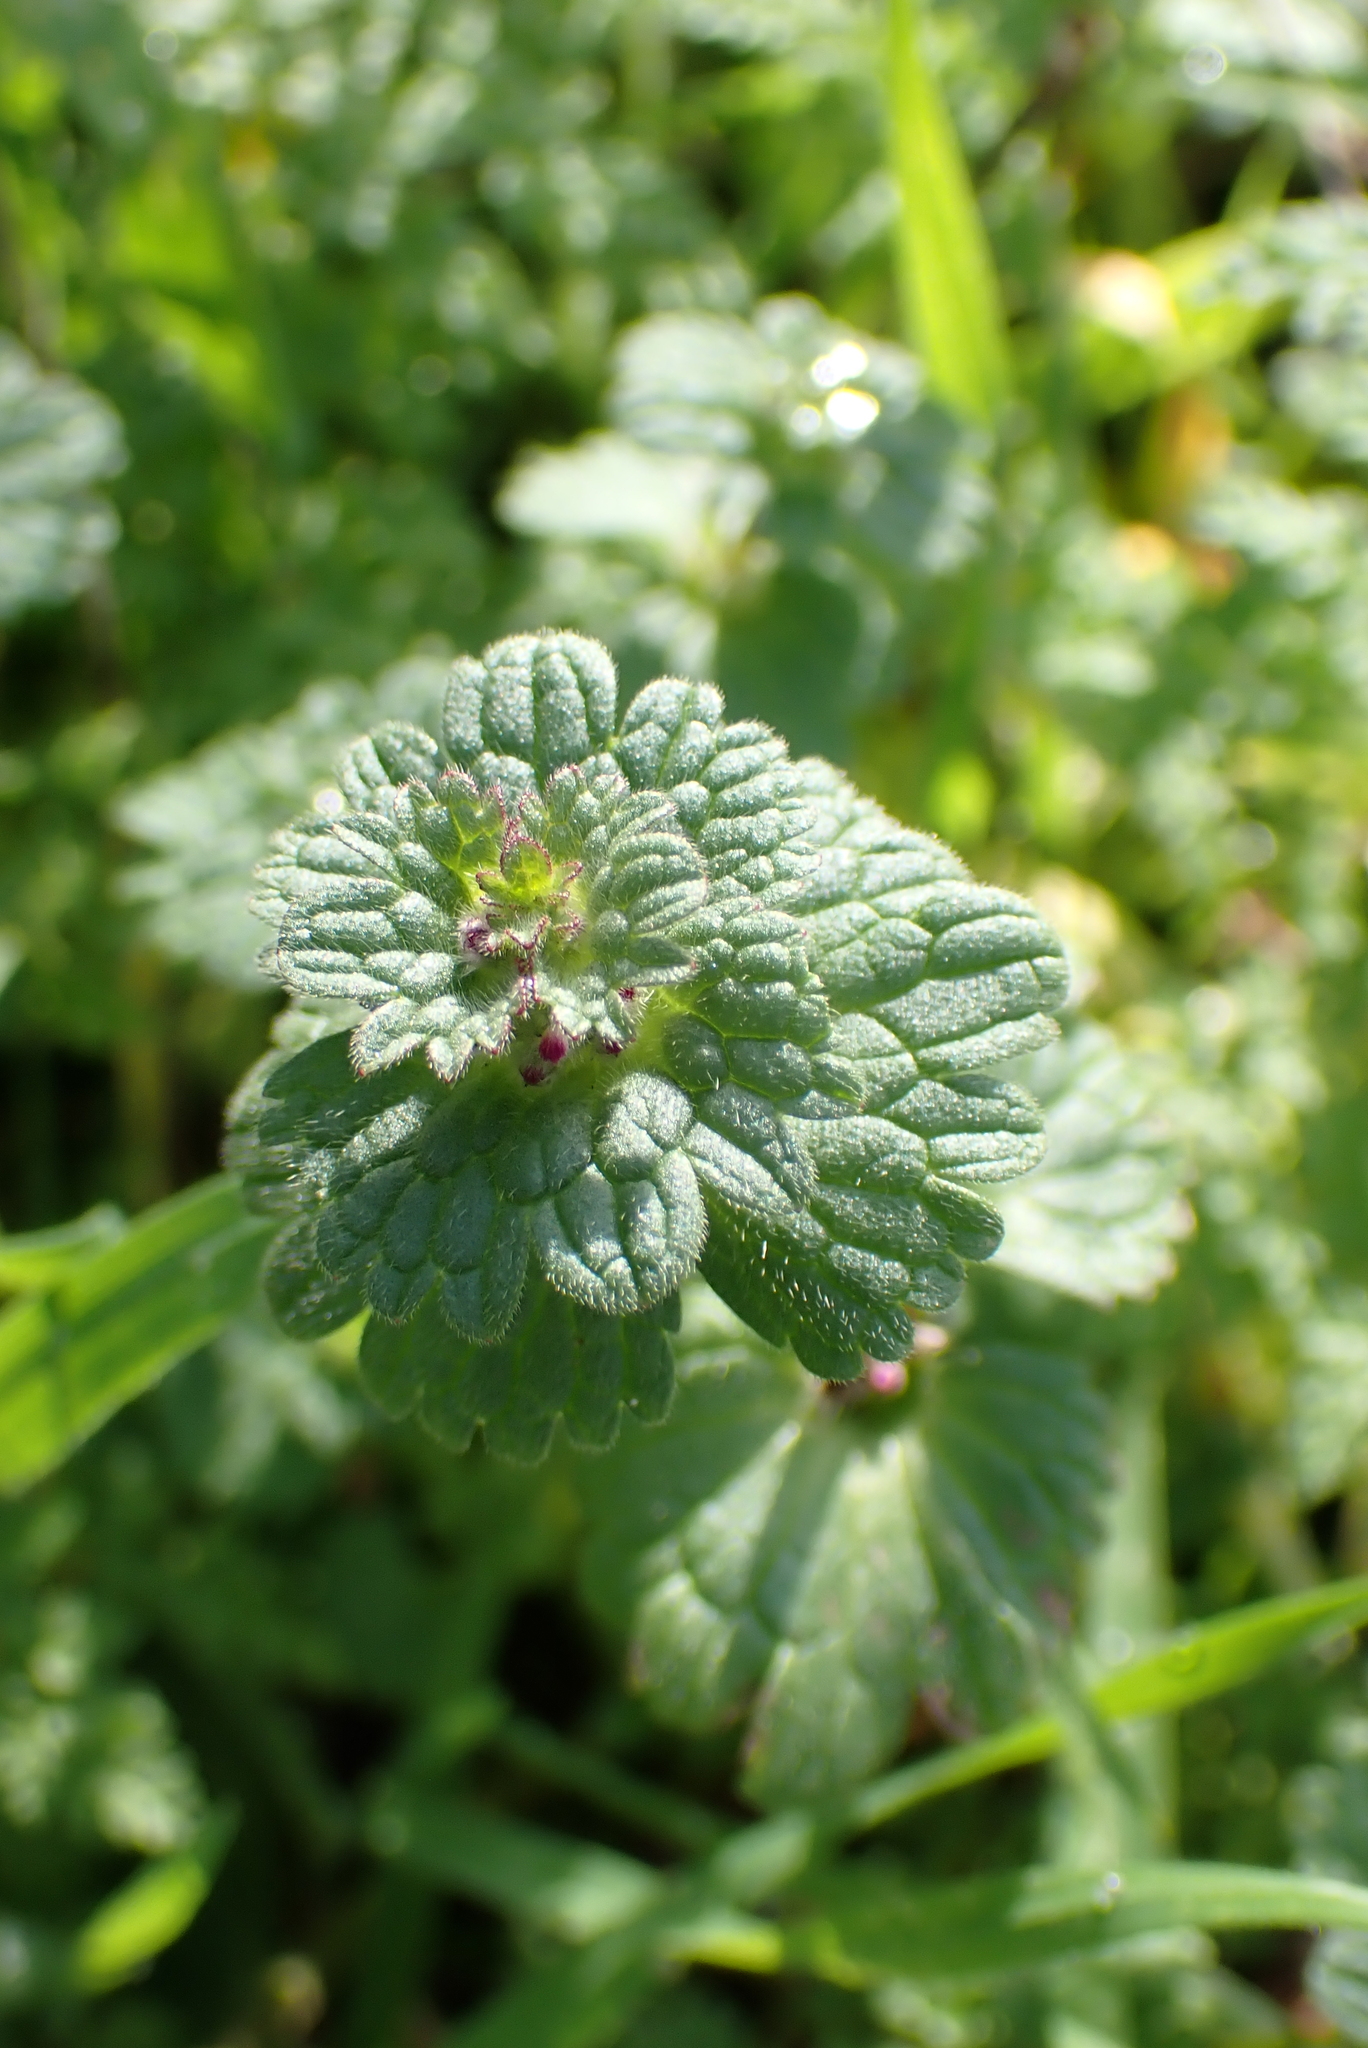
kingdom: Plantae
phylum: Tracheophyta
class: Magnoliopsida
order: Lamiales
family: Lamiaceae
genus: Lamium
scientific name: Lamium amplexicaule
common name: Henbit dead-nettle
